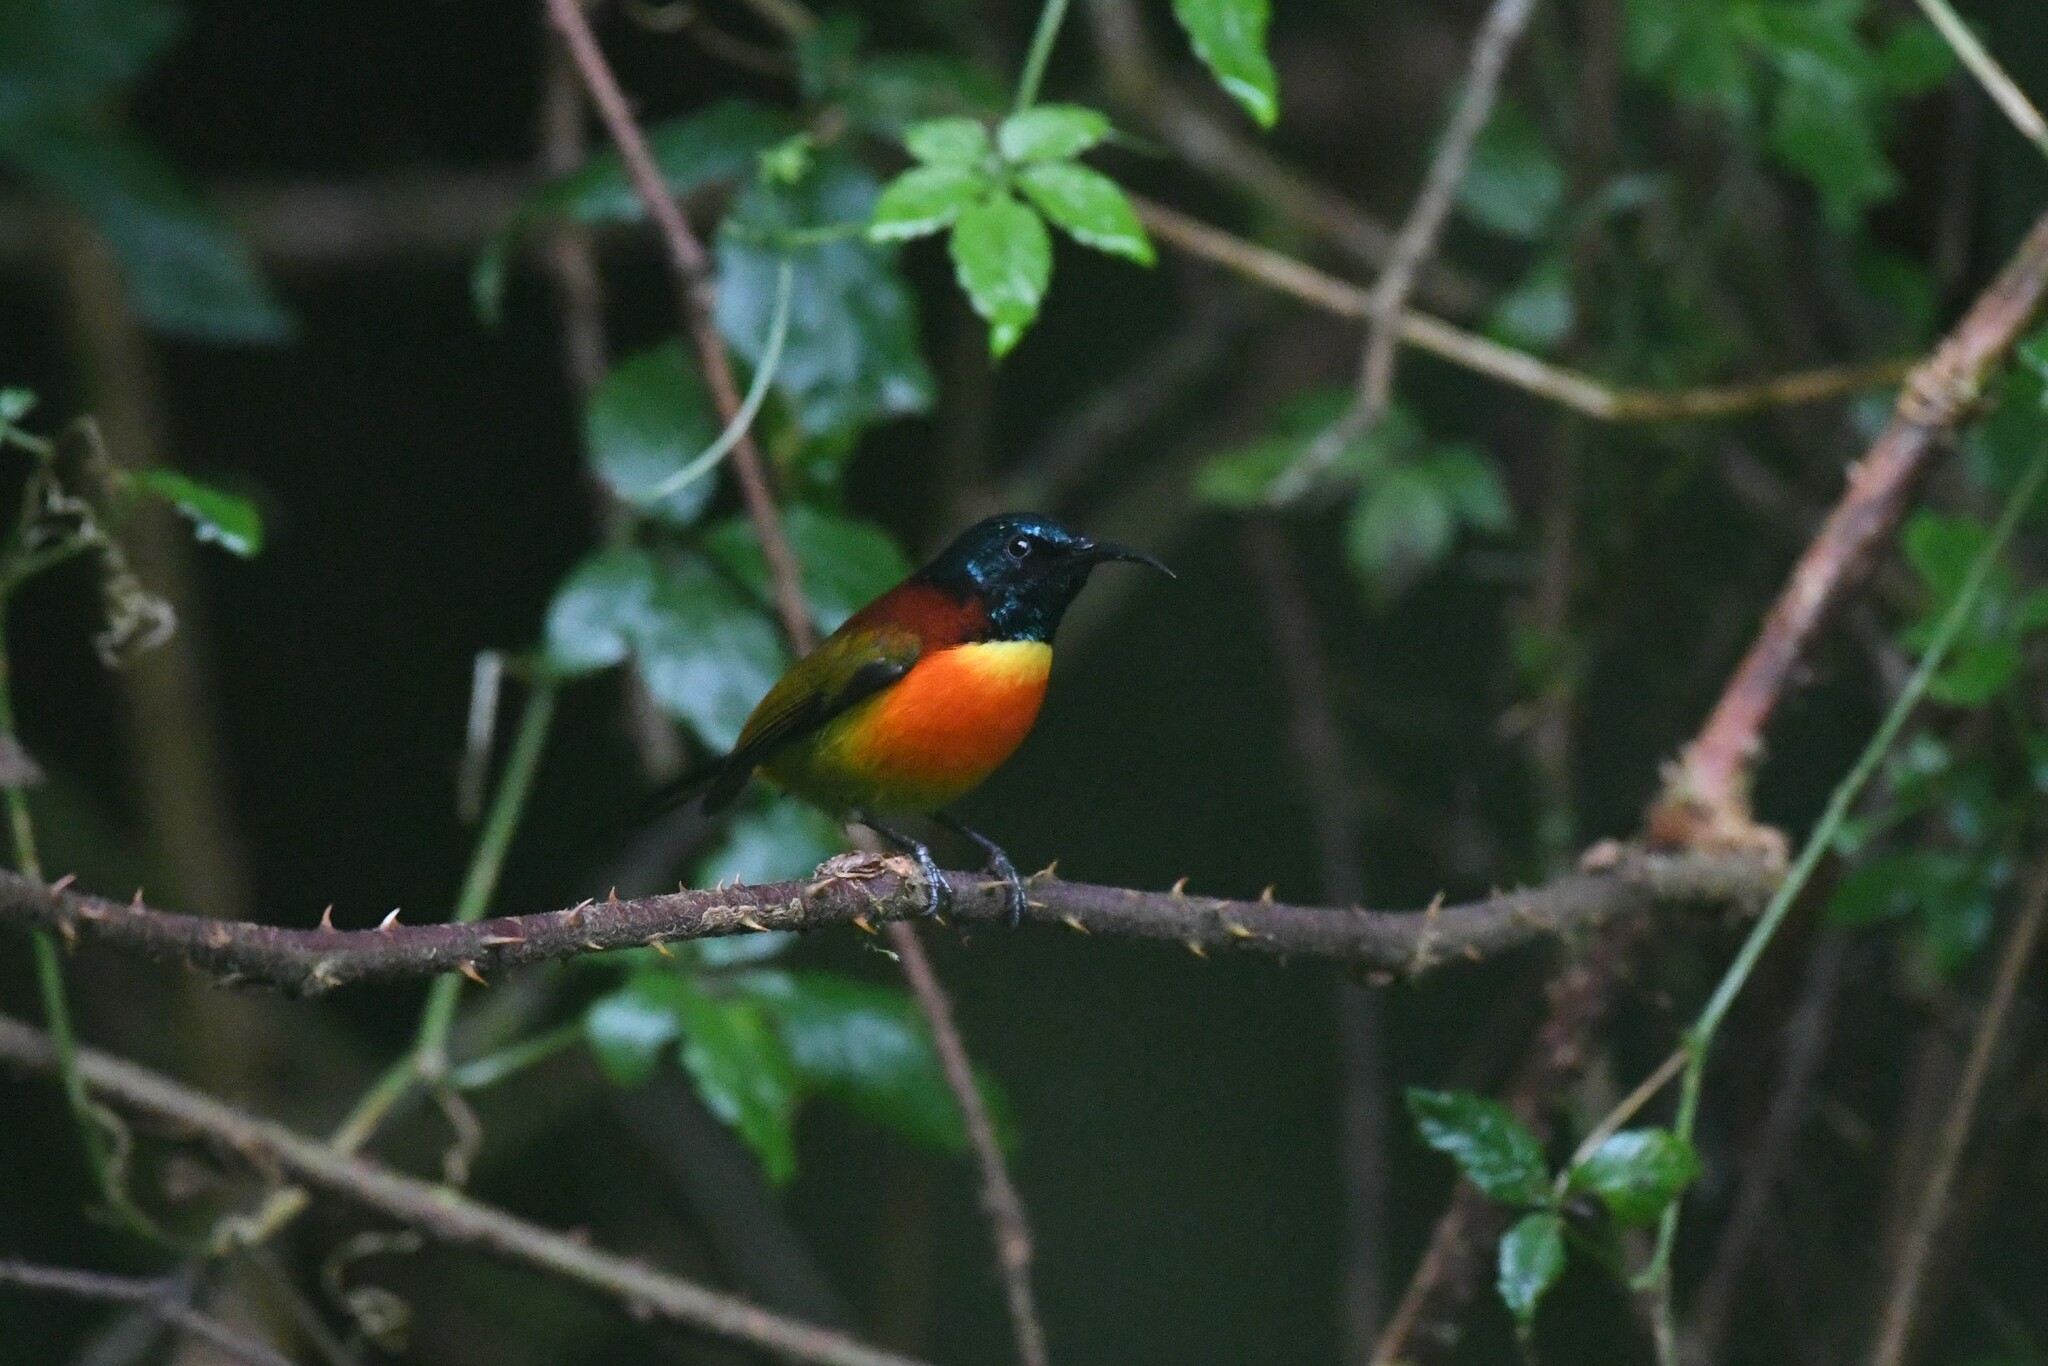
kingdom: Animalia
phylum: Chordata
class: Aves
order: Passeriformes
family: Nectariniidae
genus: Aethopyga
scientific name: Aethopyga nipalensis
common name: Green-tailed sunbird
